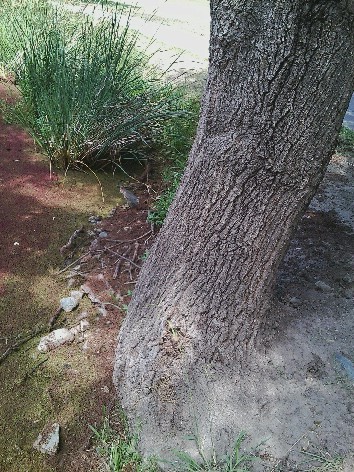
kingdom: Animalia
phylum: Chordata
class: Aves
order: Pelecaniformes
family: Ardeidae
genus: Butorides
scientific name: Butorides virescens
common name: Green heron
